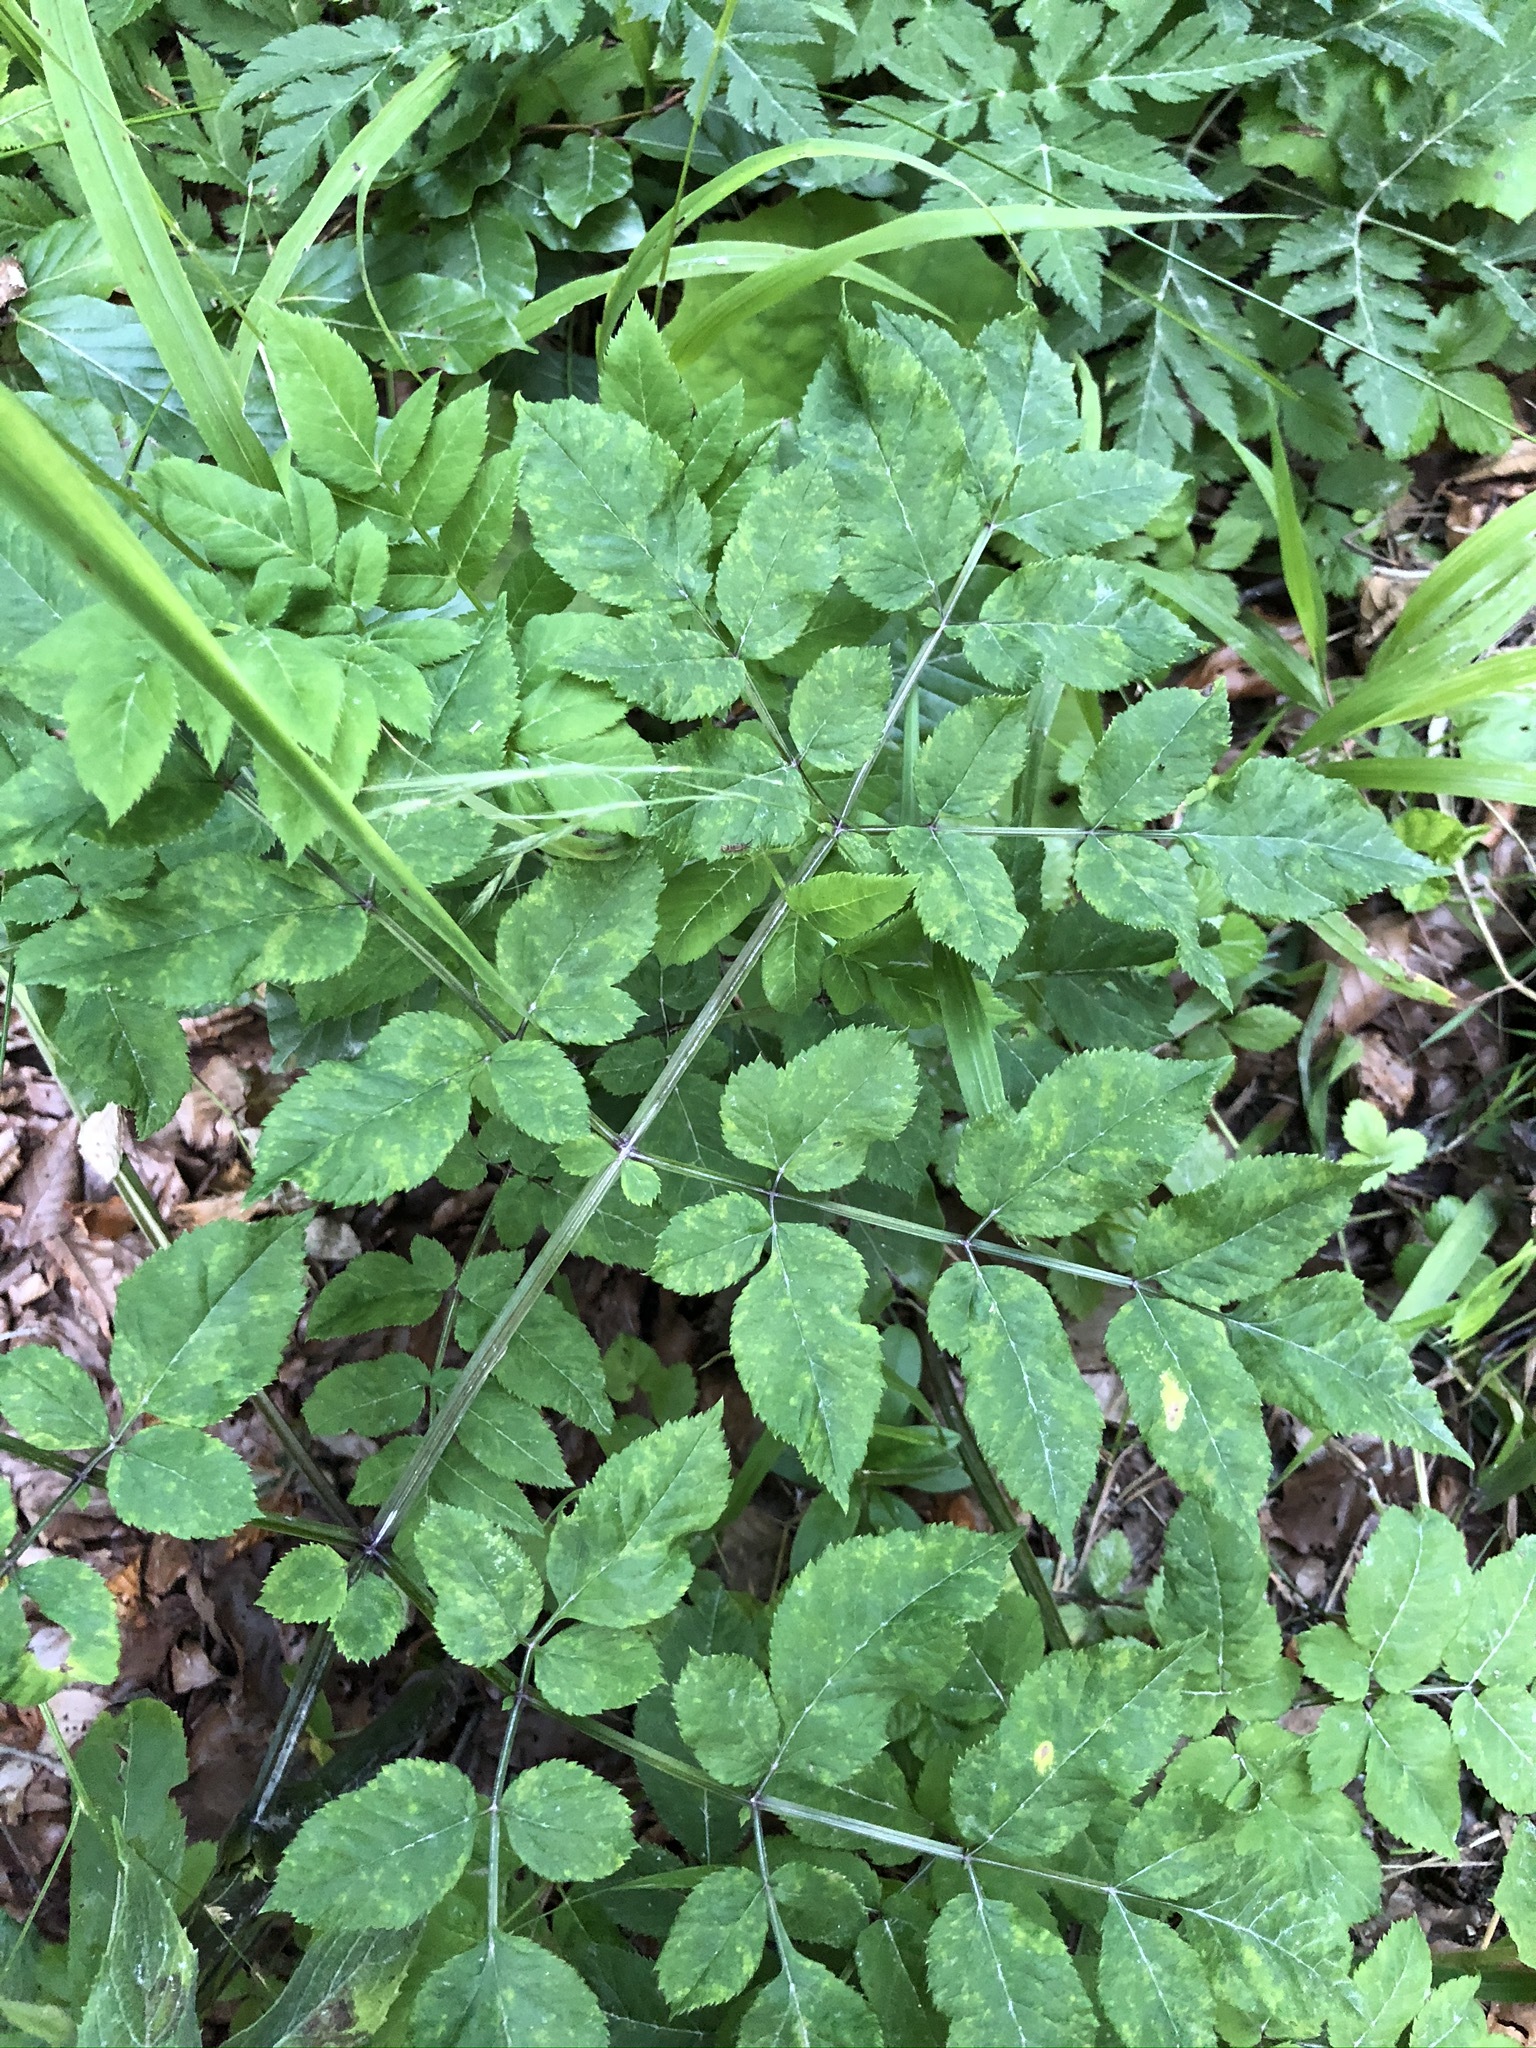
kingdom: Plantae
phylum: Tracheophyta
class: Magnoliopsida
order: Apiales
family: Apiaceae
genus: Angelica
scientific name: Angelica sylvestris
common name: Wild angelica
